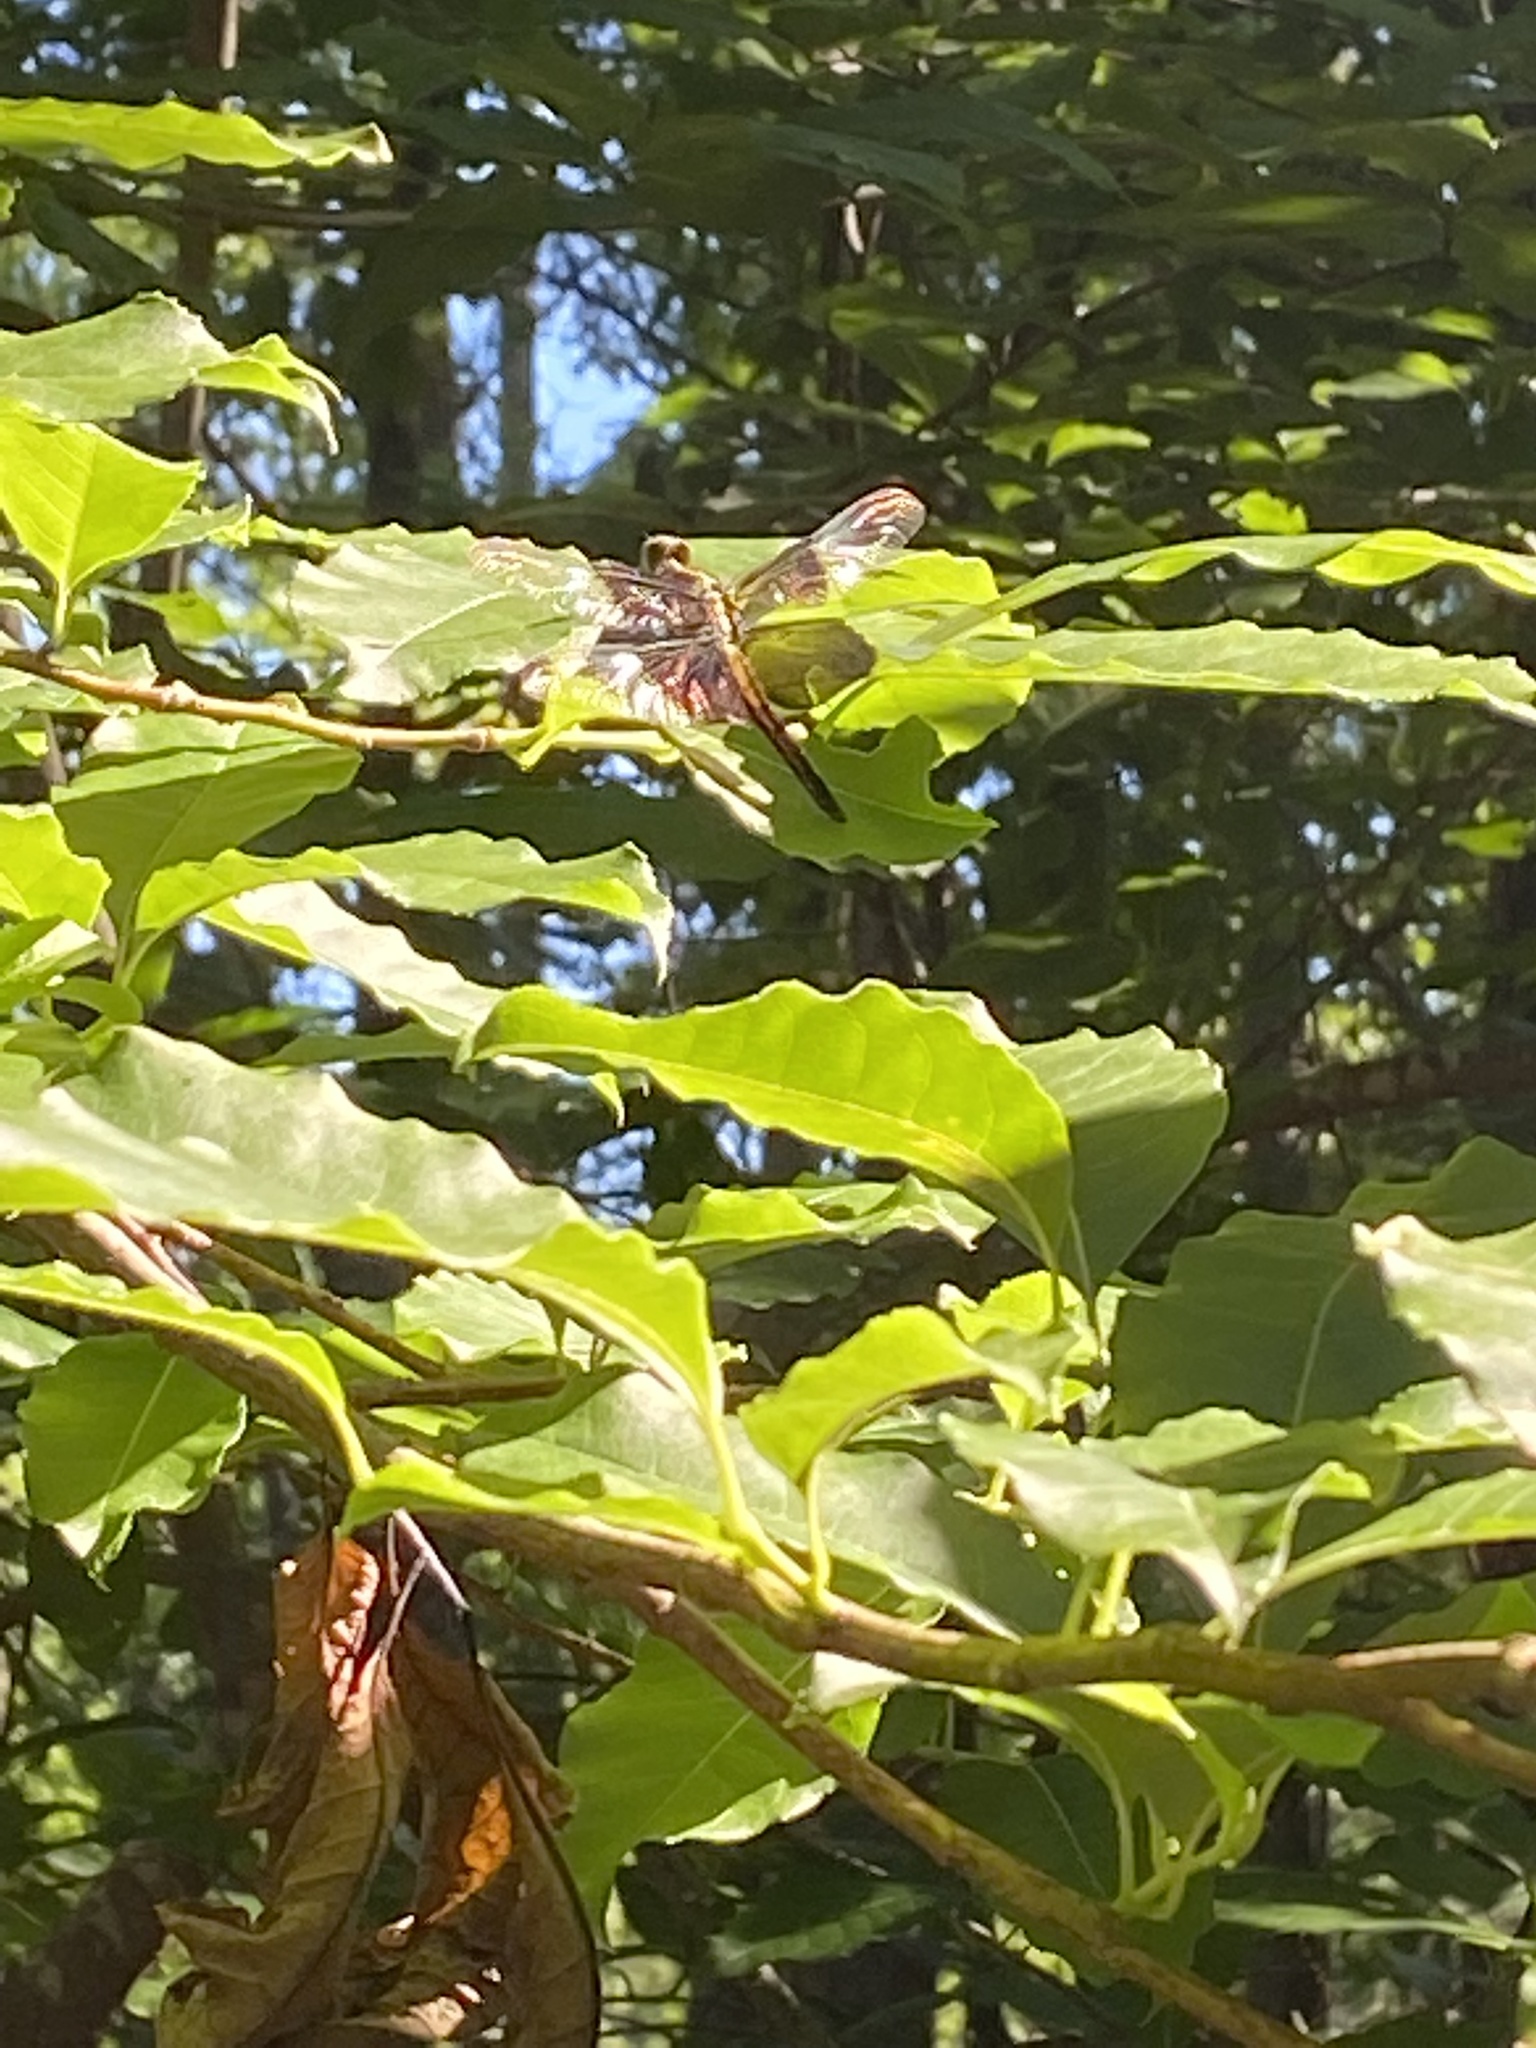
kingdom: Animalia
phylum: Arthropoda
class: Insecta
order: Odonata
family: Libellulidae
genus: Libellula
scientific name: Libellula luctuosa
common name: Widow skimmer
